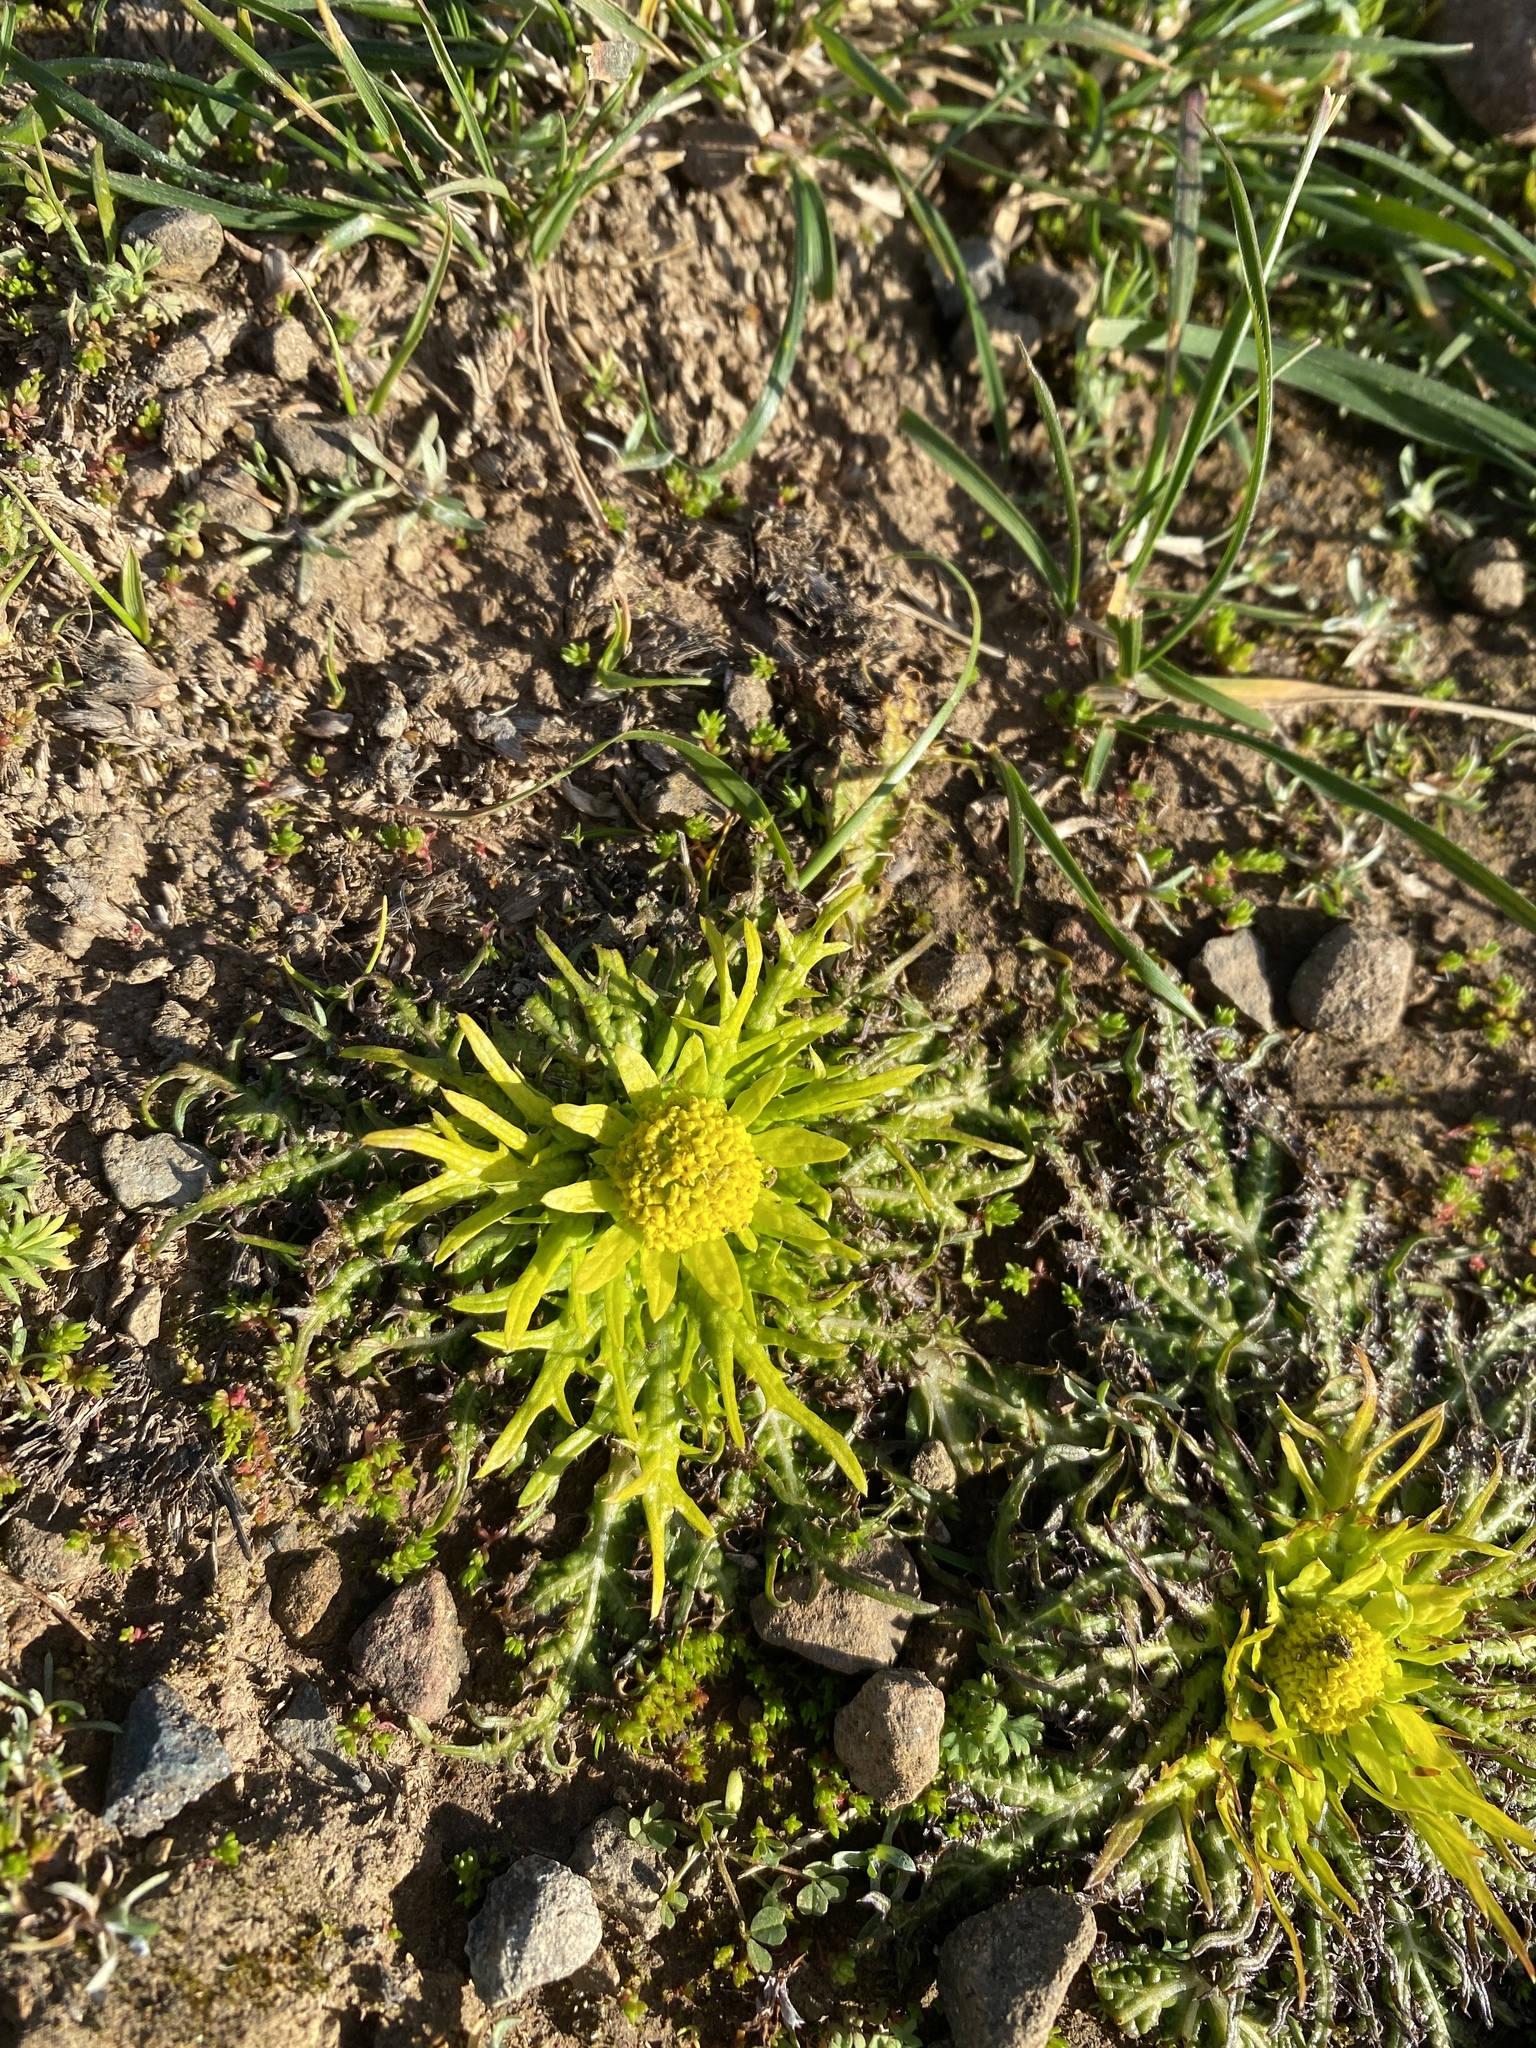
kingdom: Plantae
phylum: Tracheophyta
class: Magnoliopsida
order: Apiales
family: Apiaceae
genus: Sanicula
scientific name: Sanicula arctopoides
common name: Footsteps-of-spring
